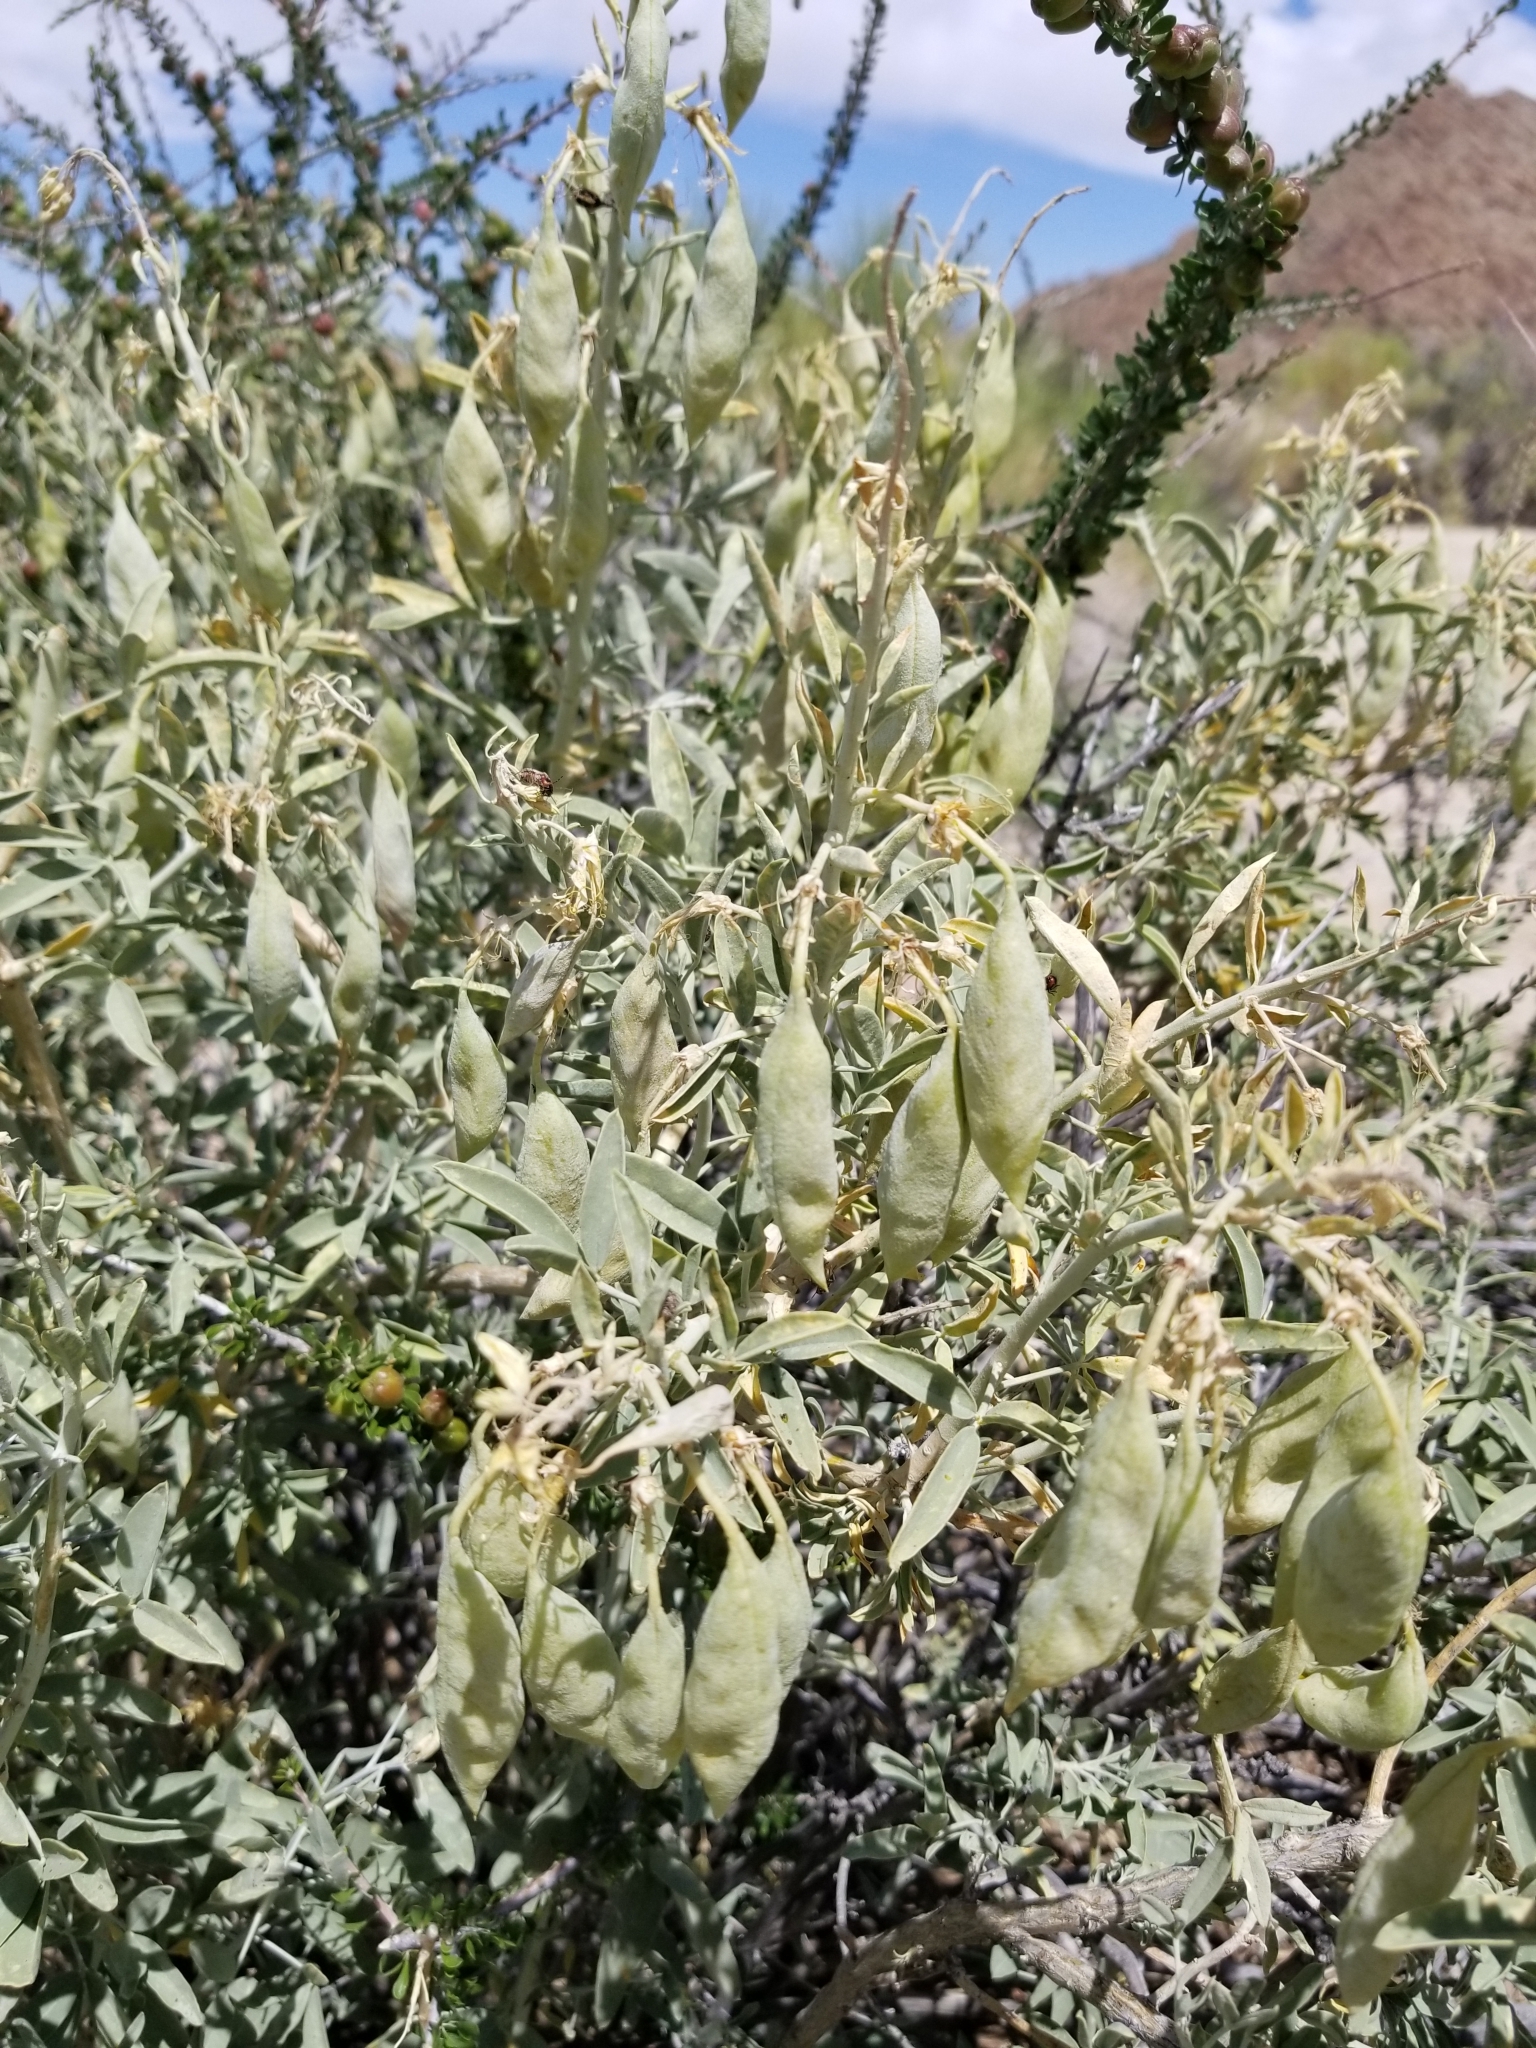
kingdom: Plantae
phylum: Tracheophyta
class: Magnoliopsida
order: Brassicales
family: Cleomaceae
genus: Cleomella
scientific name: Cleomella arborea
